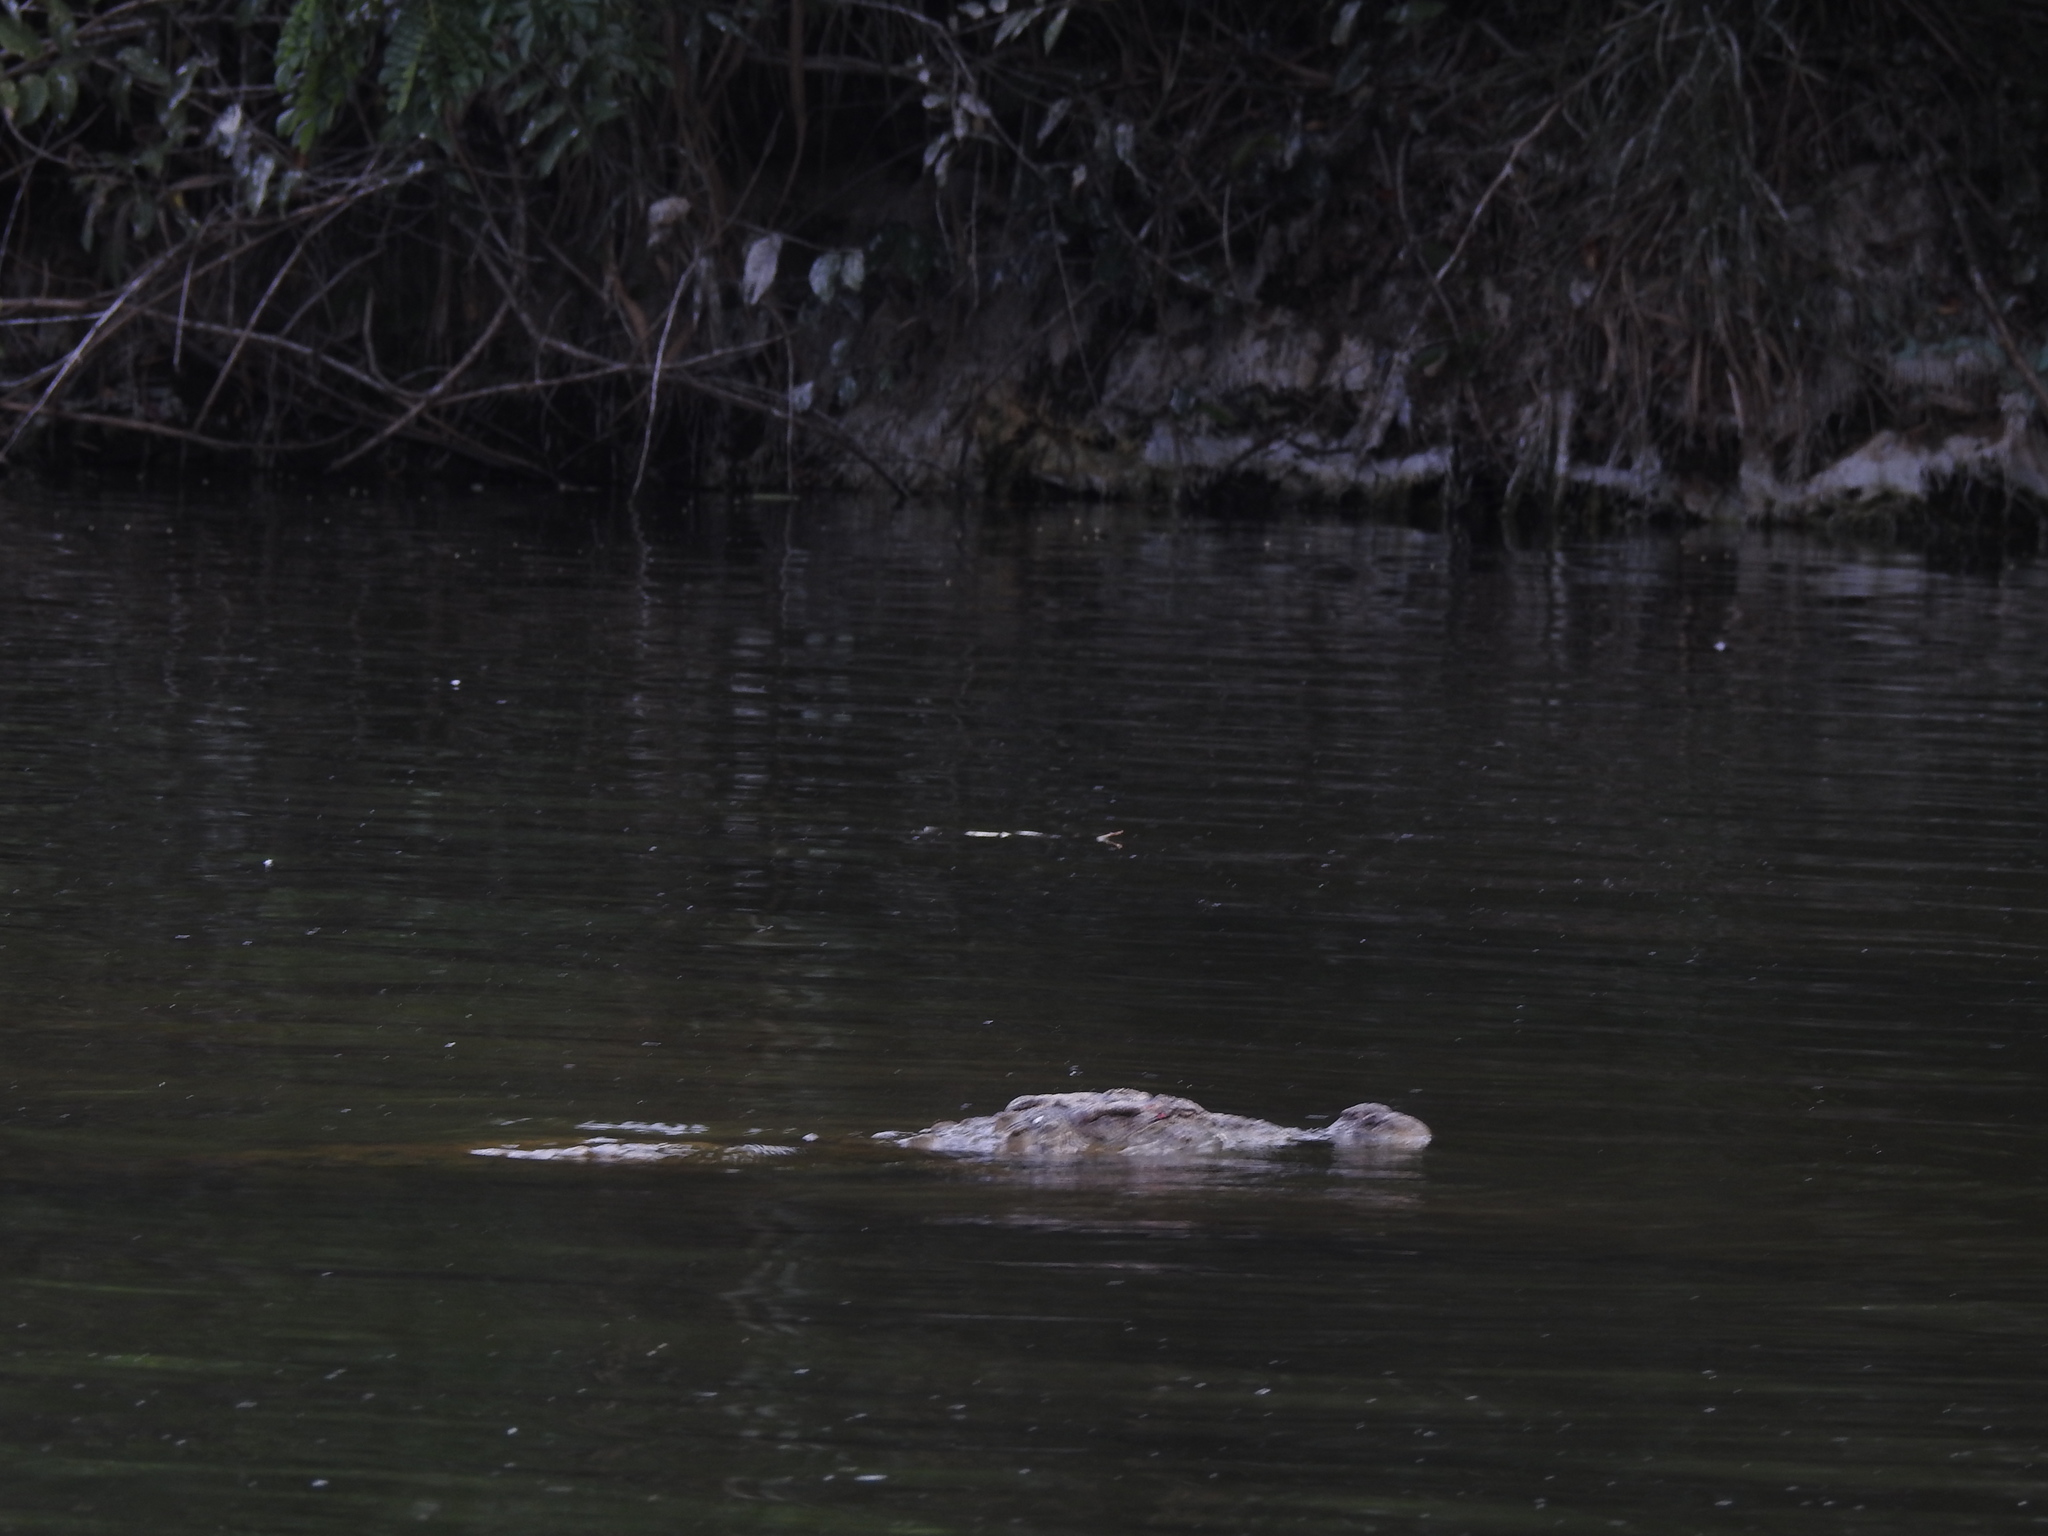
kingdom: Animalia
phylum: Chordata
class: Crocodylia
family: Crocodylidae
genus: Crocodylus
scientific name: Crocodylus palustris
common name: Mugger crocodile
